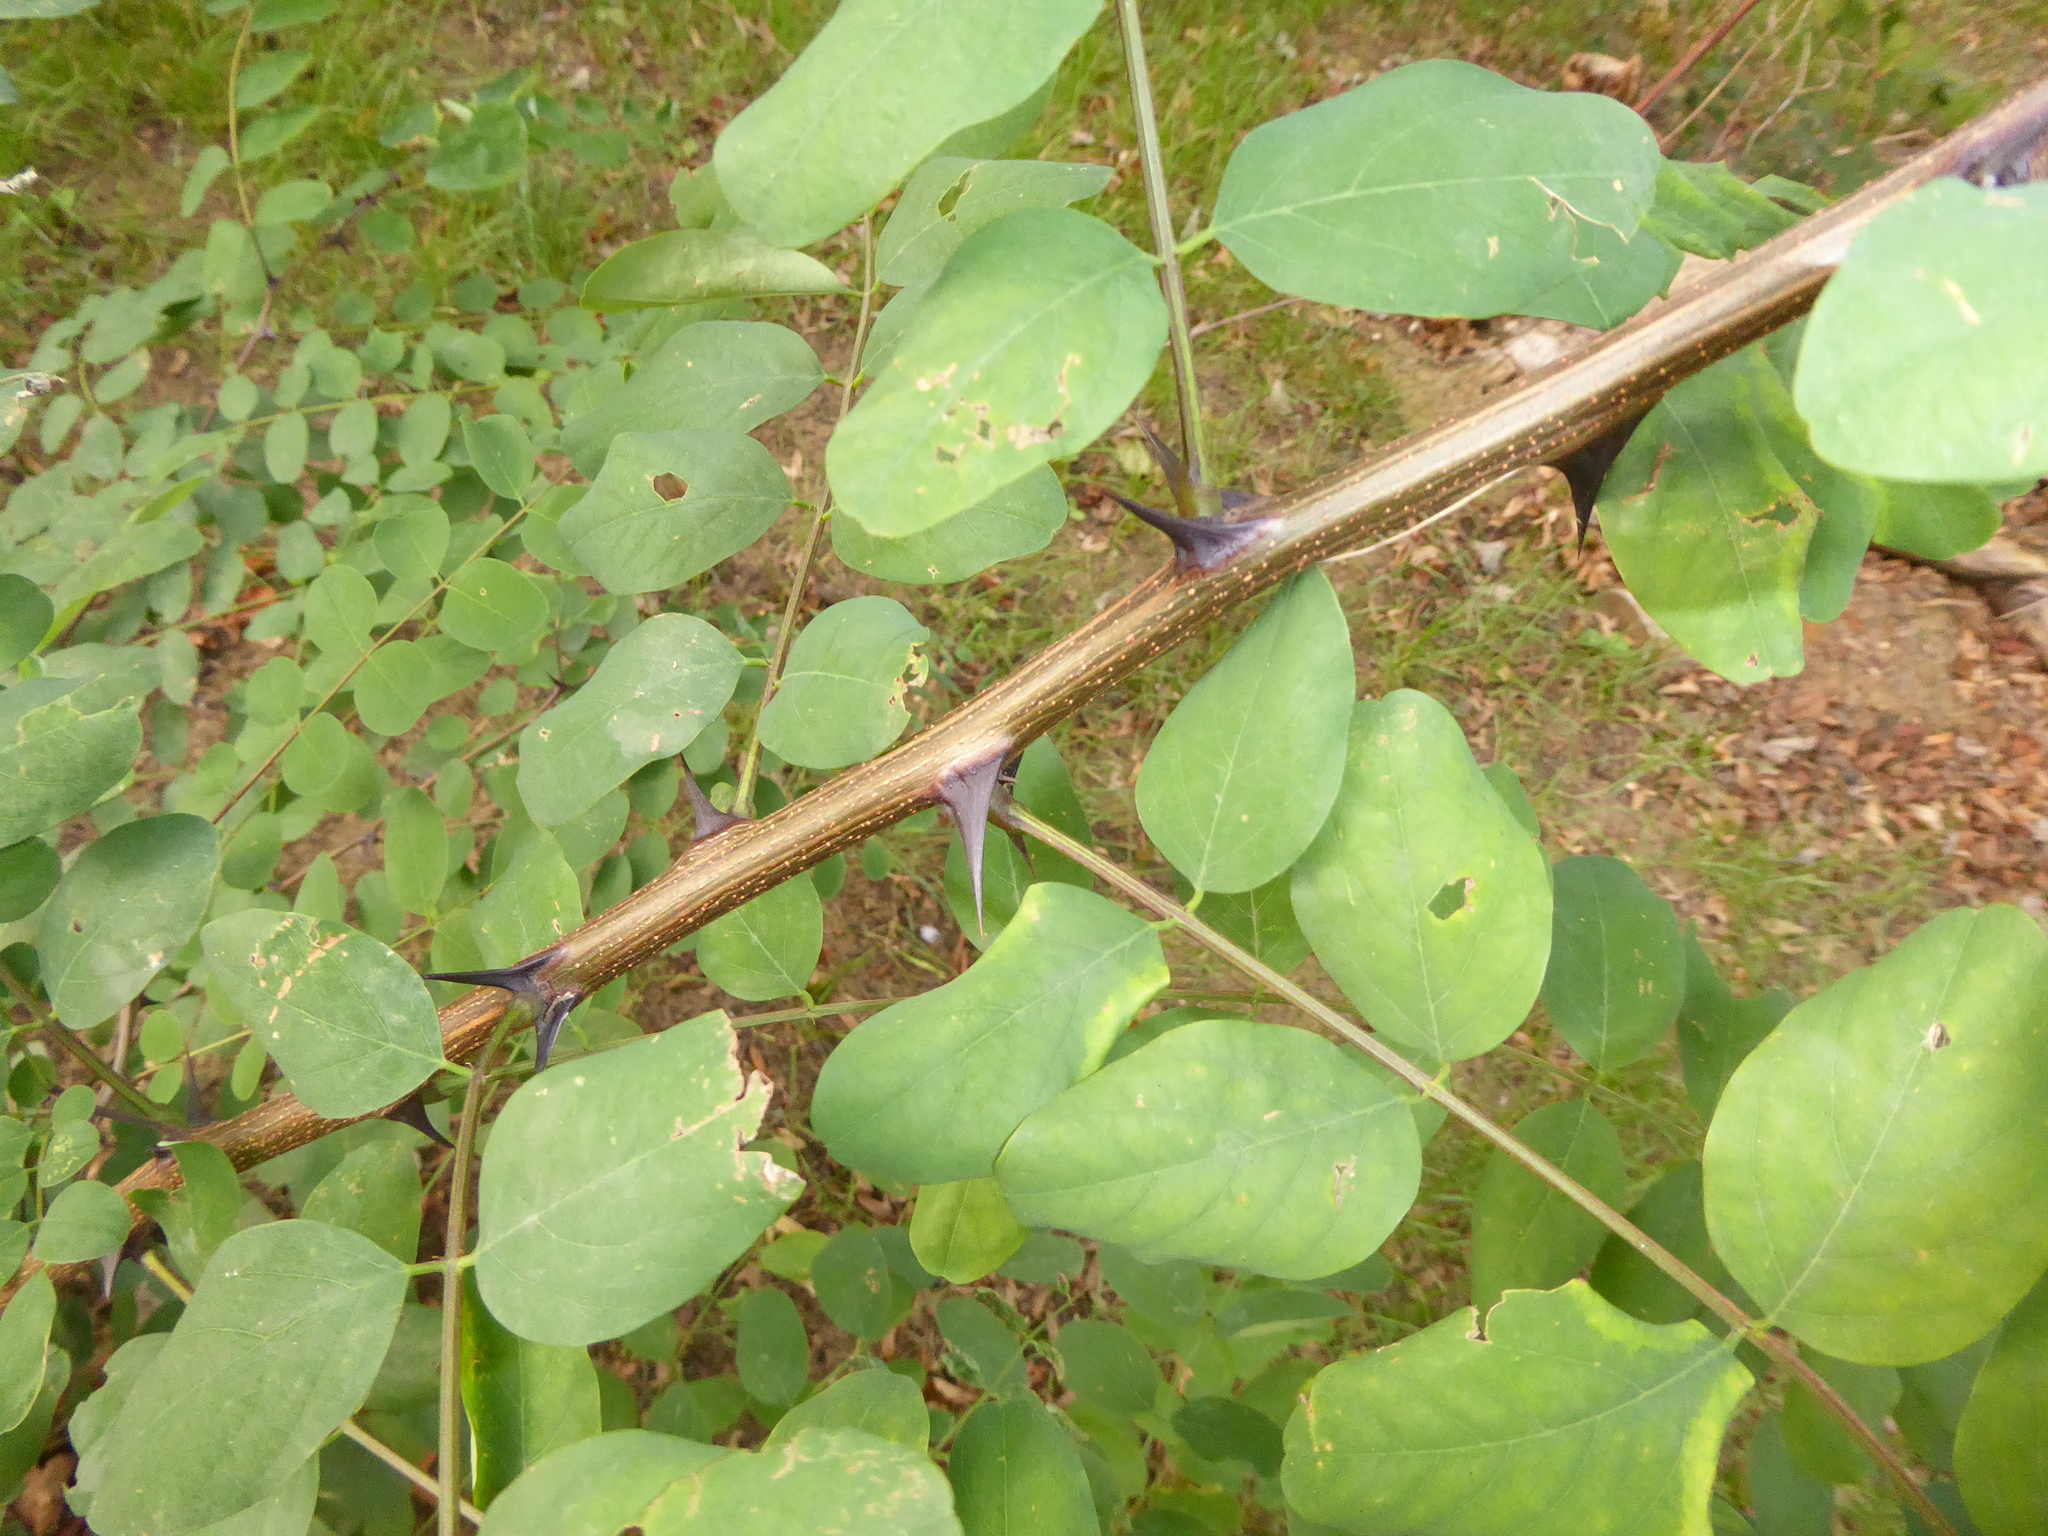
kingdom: Plantae
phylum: Tracheophyta
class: Magnoliopsida
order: Fabales
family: Fabaceae
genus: Robinia
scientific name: Robinia pseudoacacia
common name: Black locust
